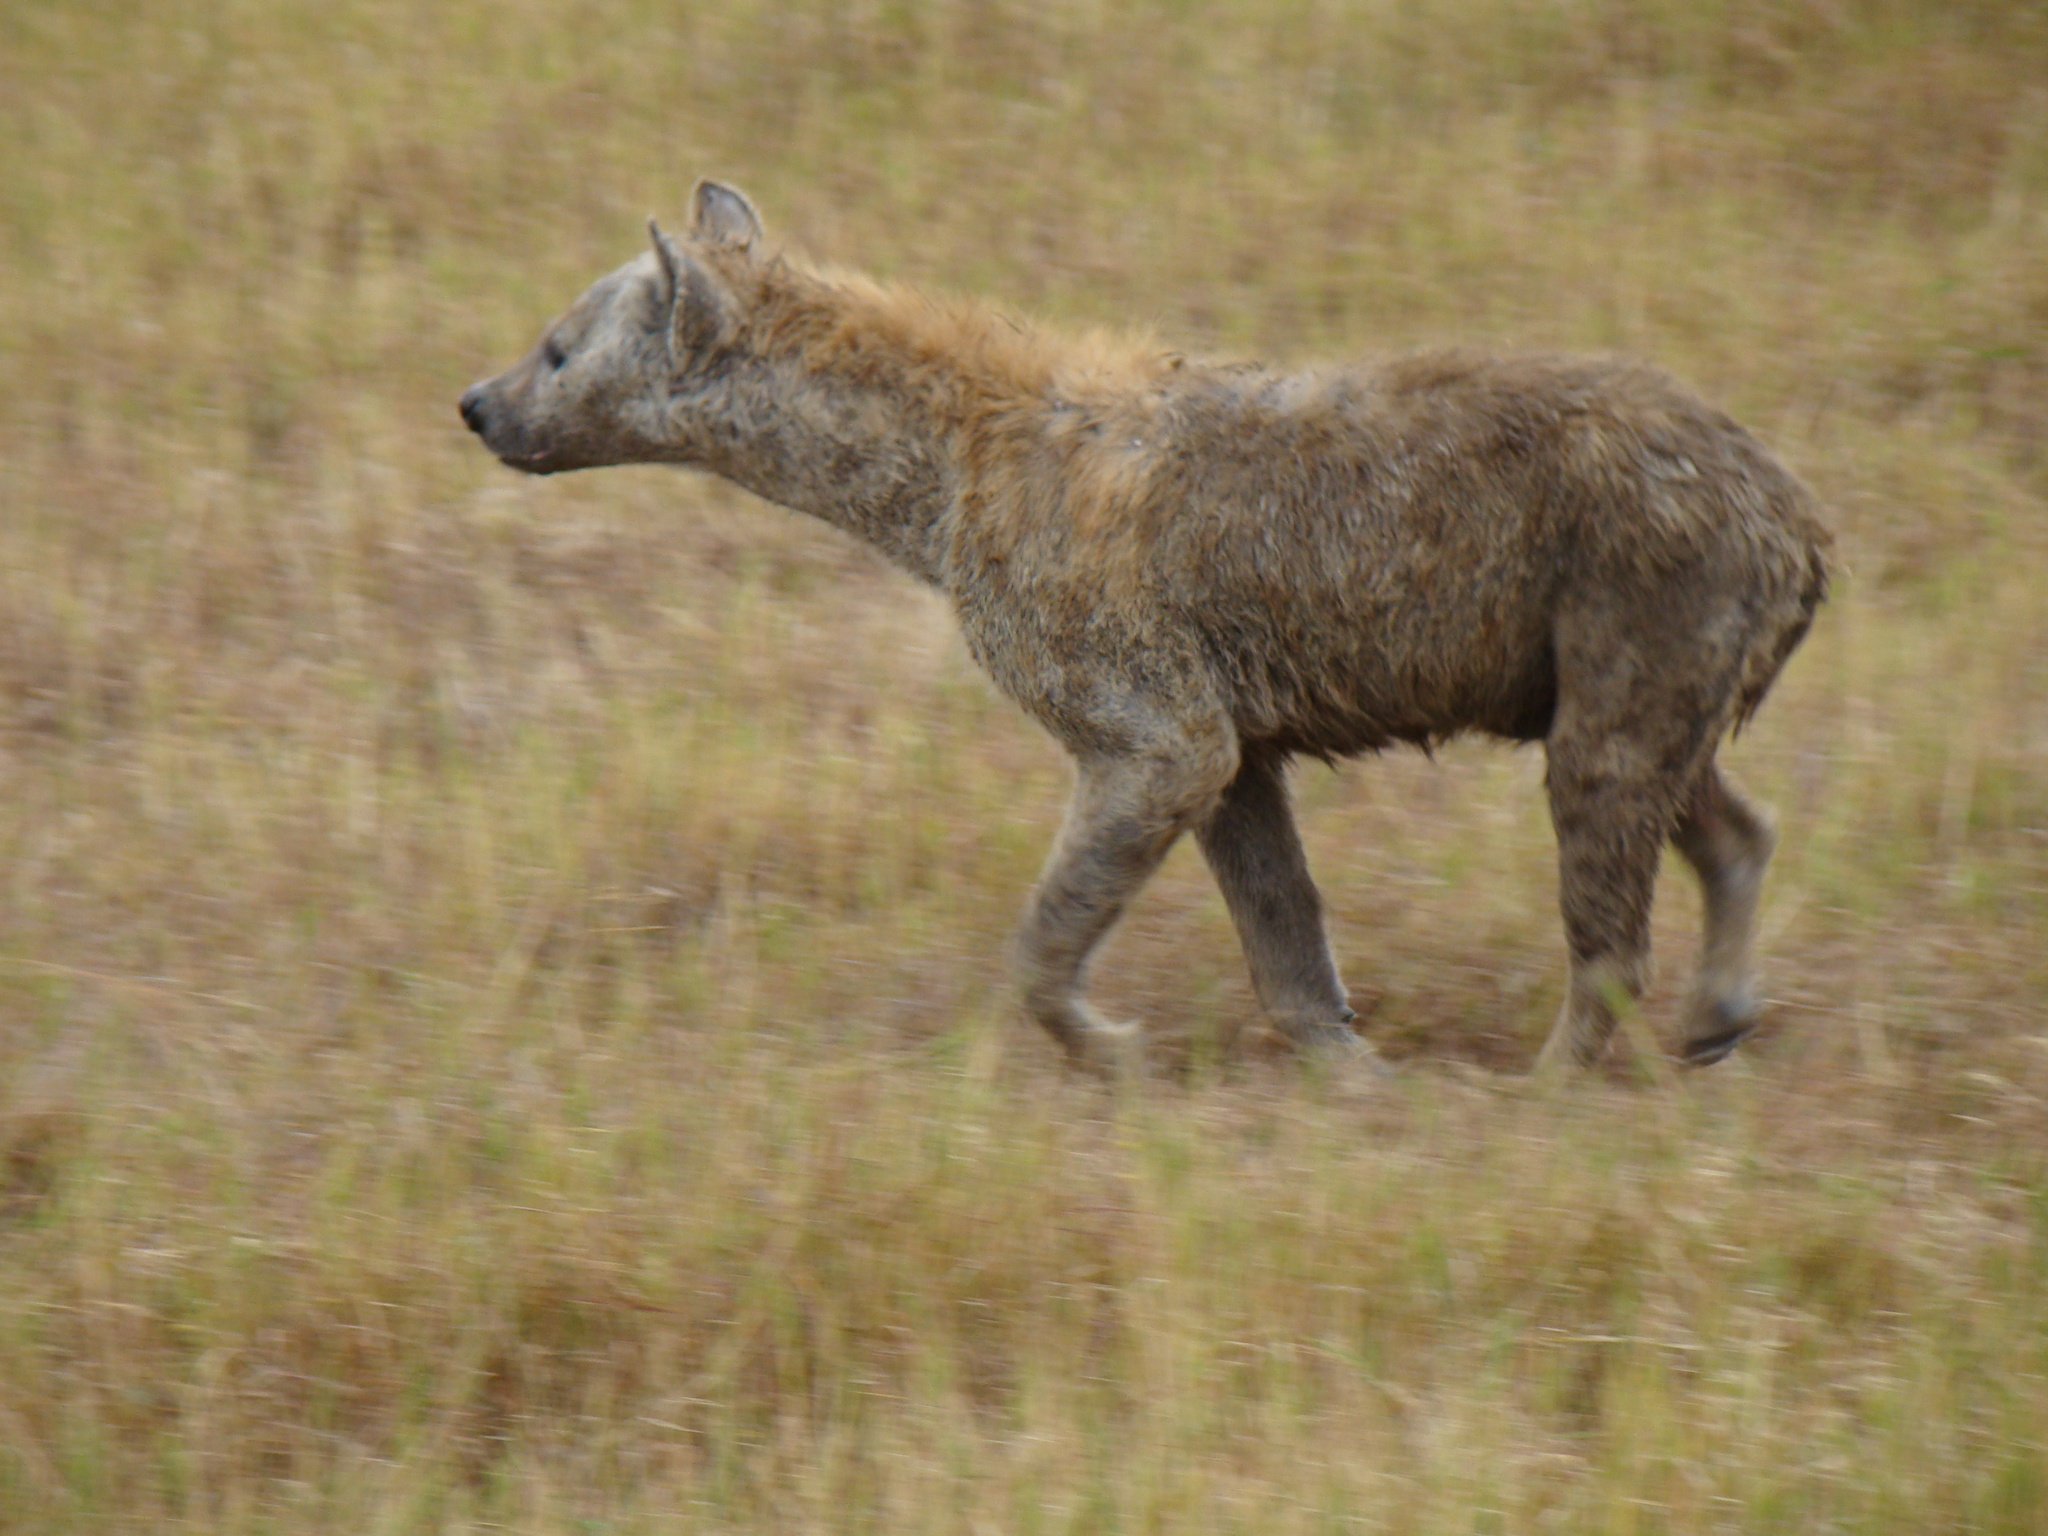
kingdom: Animalia
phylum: Chordata
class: Mammalia
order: Carnivora
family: Hyaenidae
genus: Crocuta
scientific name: Crocuta crocuta
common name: Spotted hyaena
